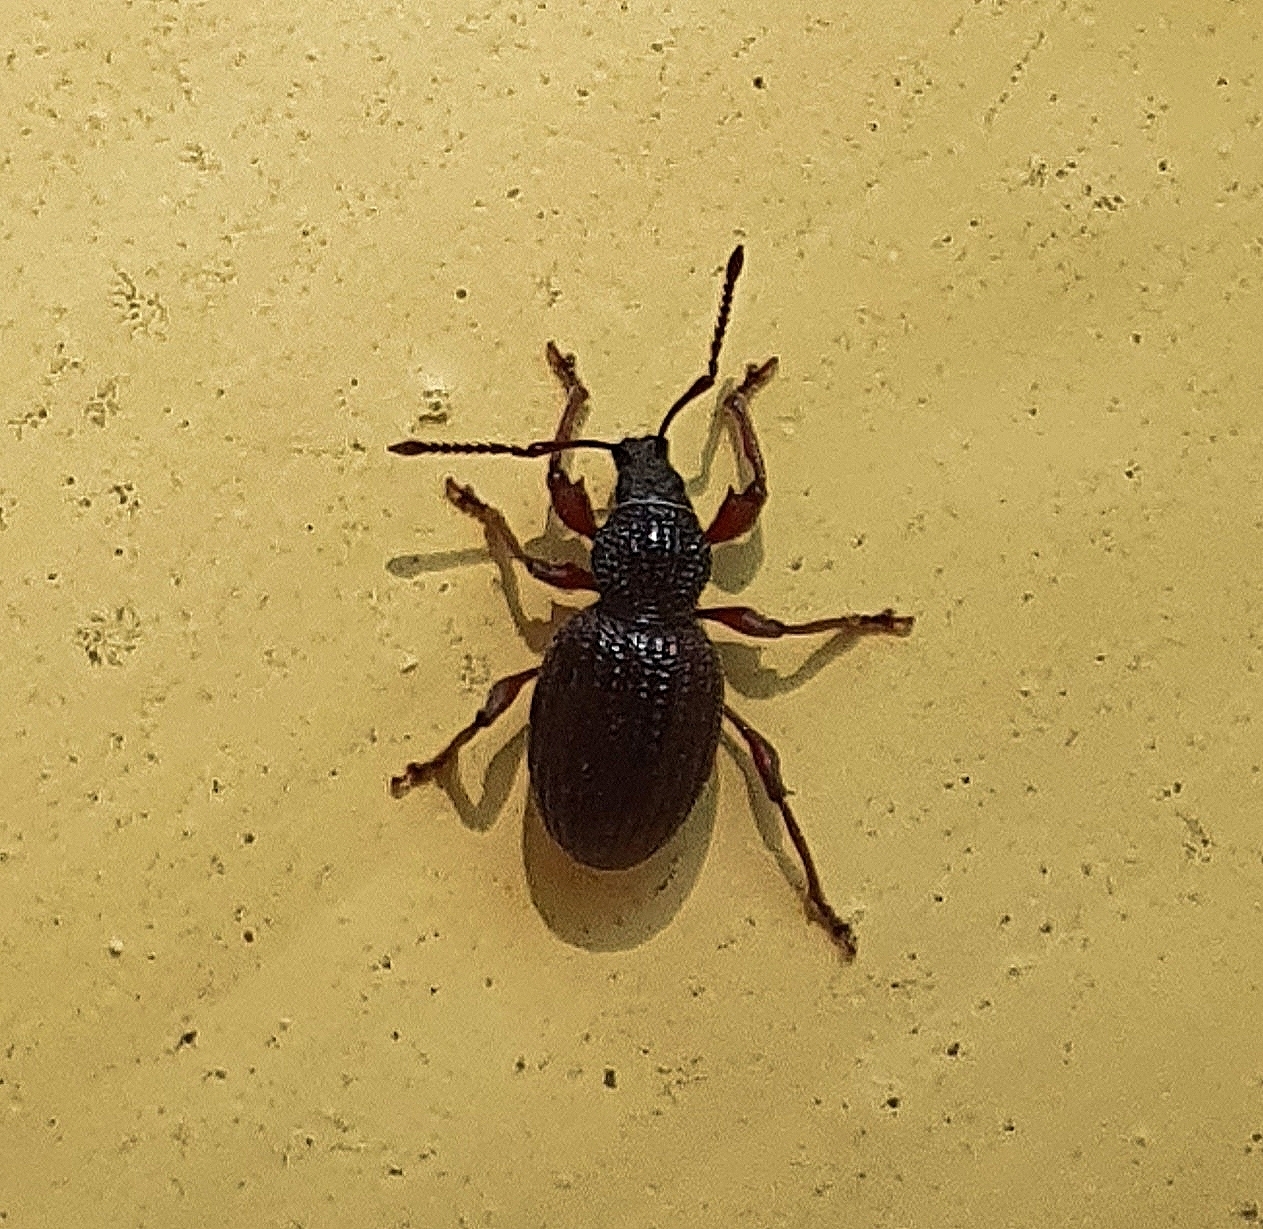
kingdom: Animalia
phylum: Arthropoda
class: Insecta
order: Coleoptera
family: Curculionidae
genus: Otiorhynchus
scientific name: Otiorhynchus ovatus
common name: Strawberry root weevil
